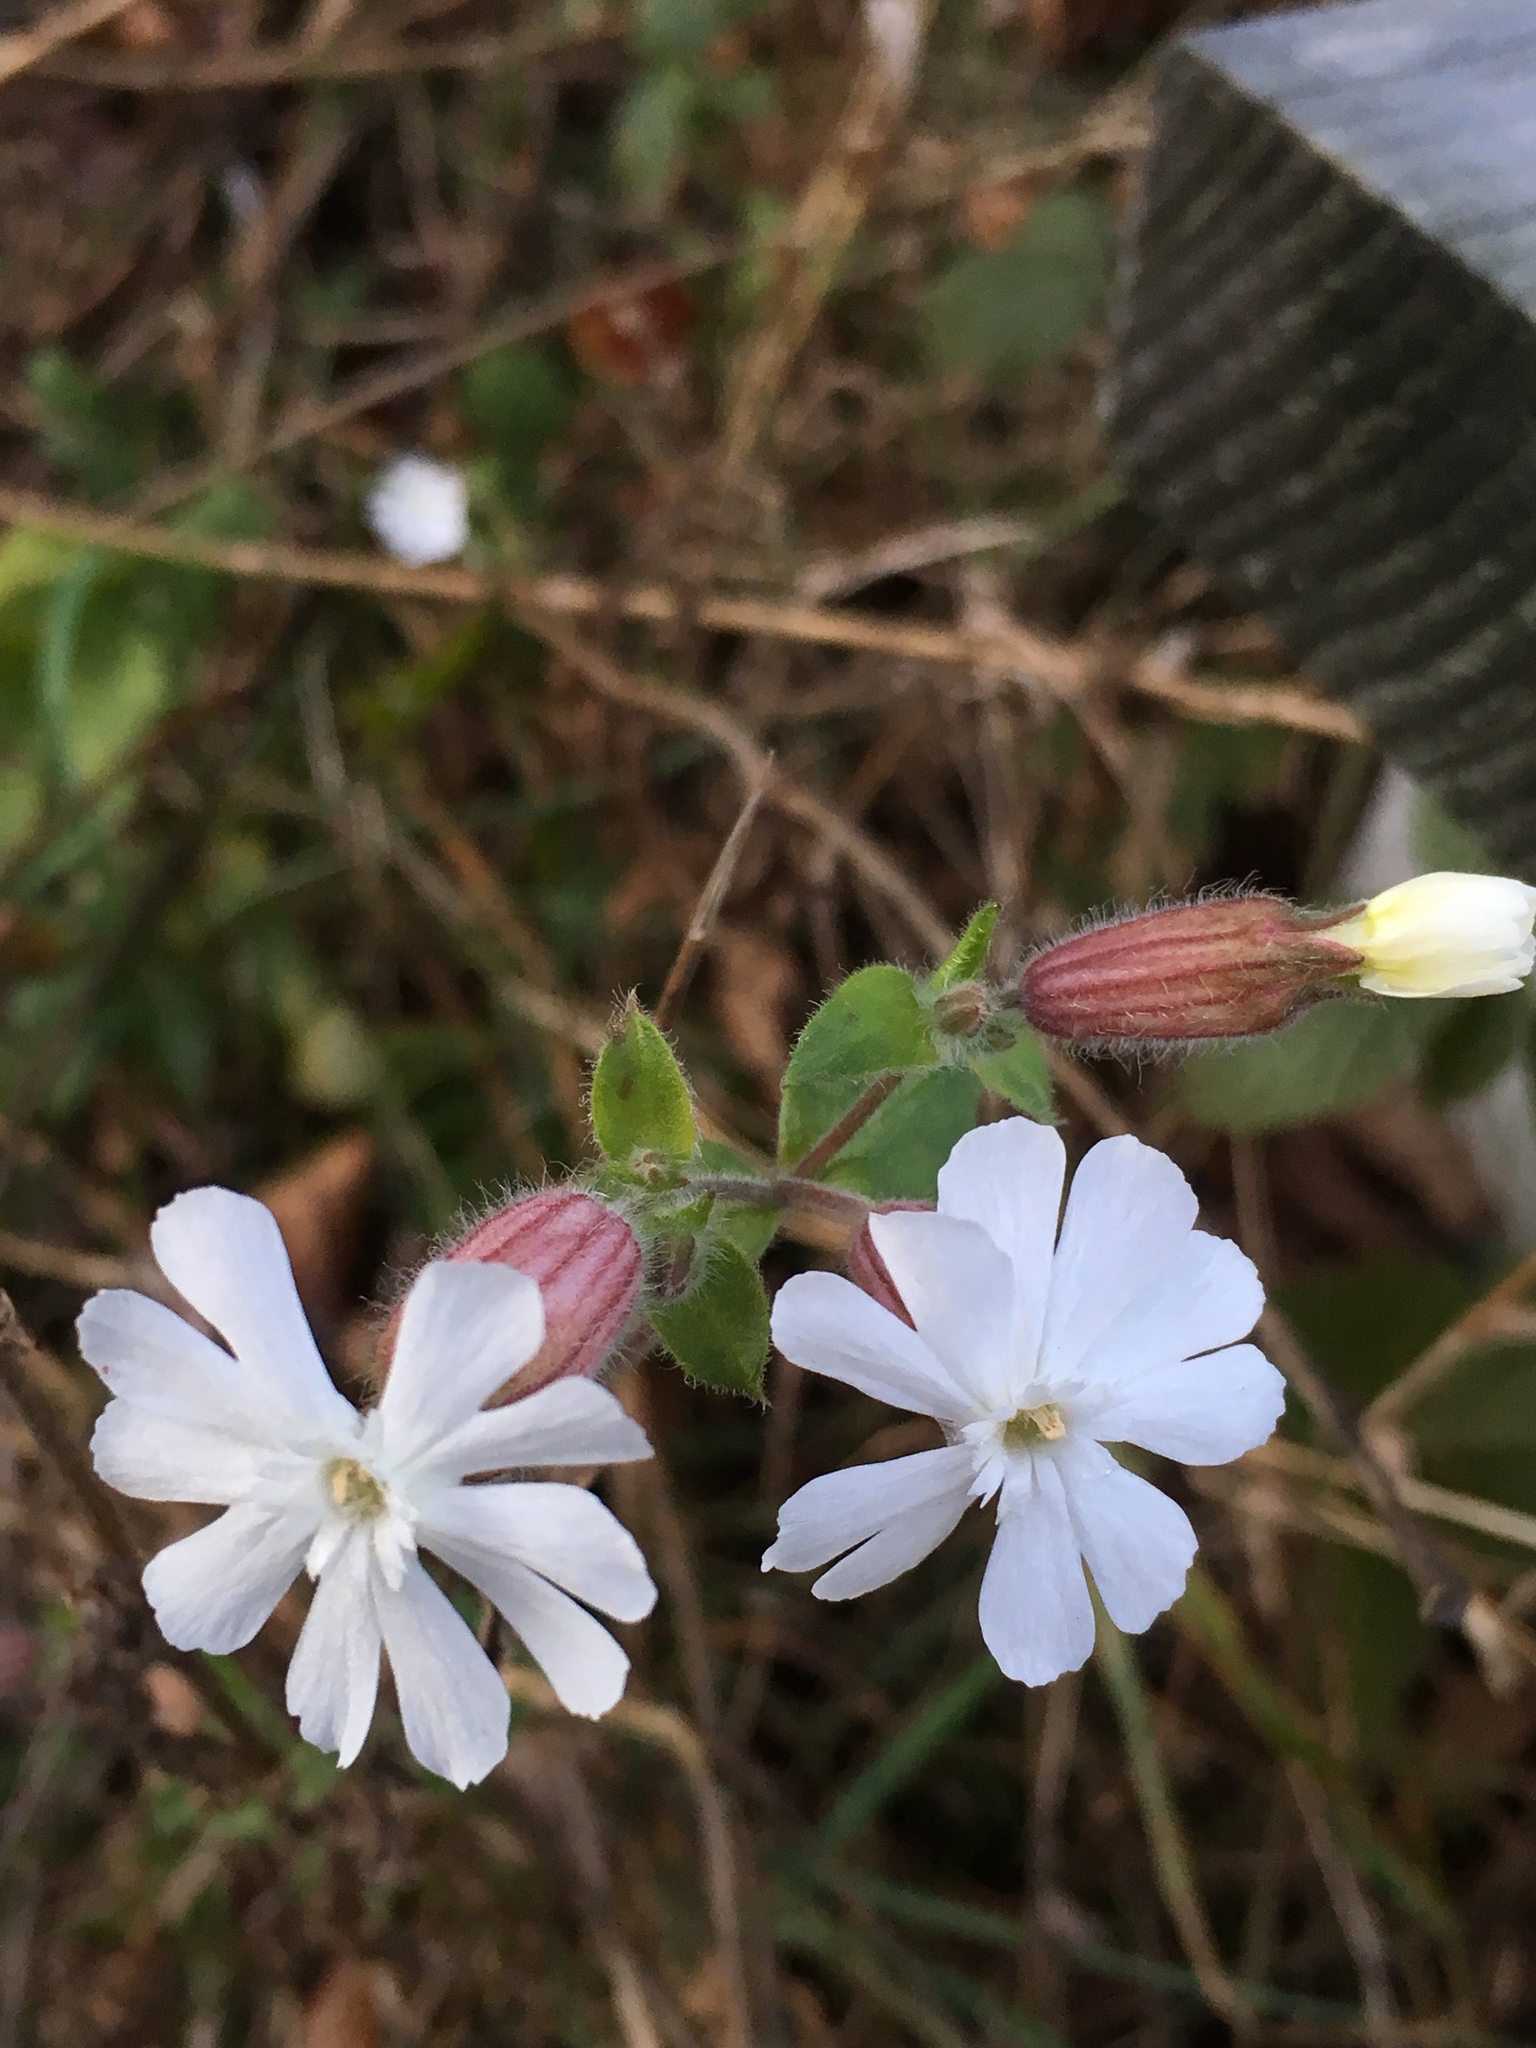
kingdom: Plantae
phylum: Tracheophyta
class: Magnoliopsida
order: Caryophyllales
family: Caryophyllaceae
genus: Silene
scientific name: Silene latifolia
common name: White campion
